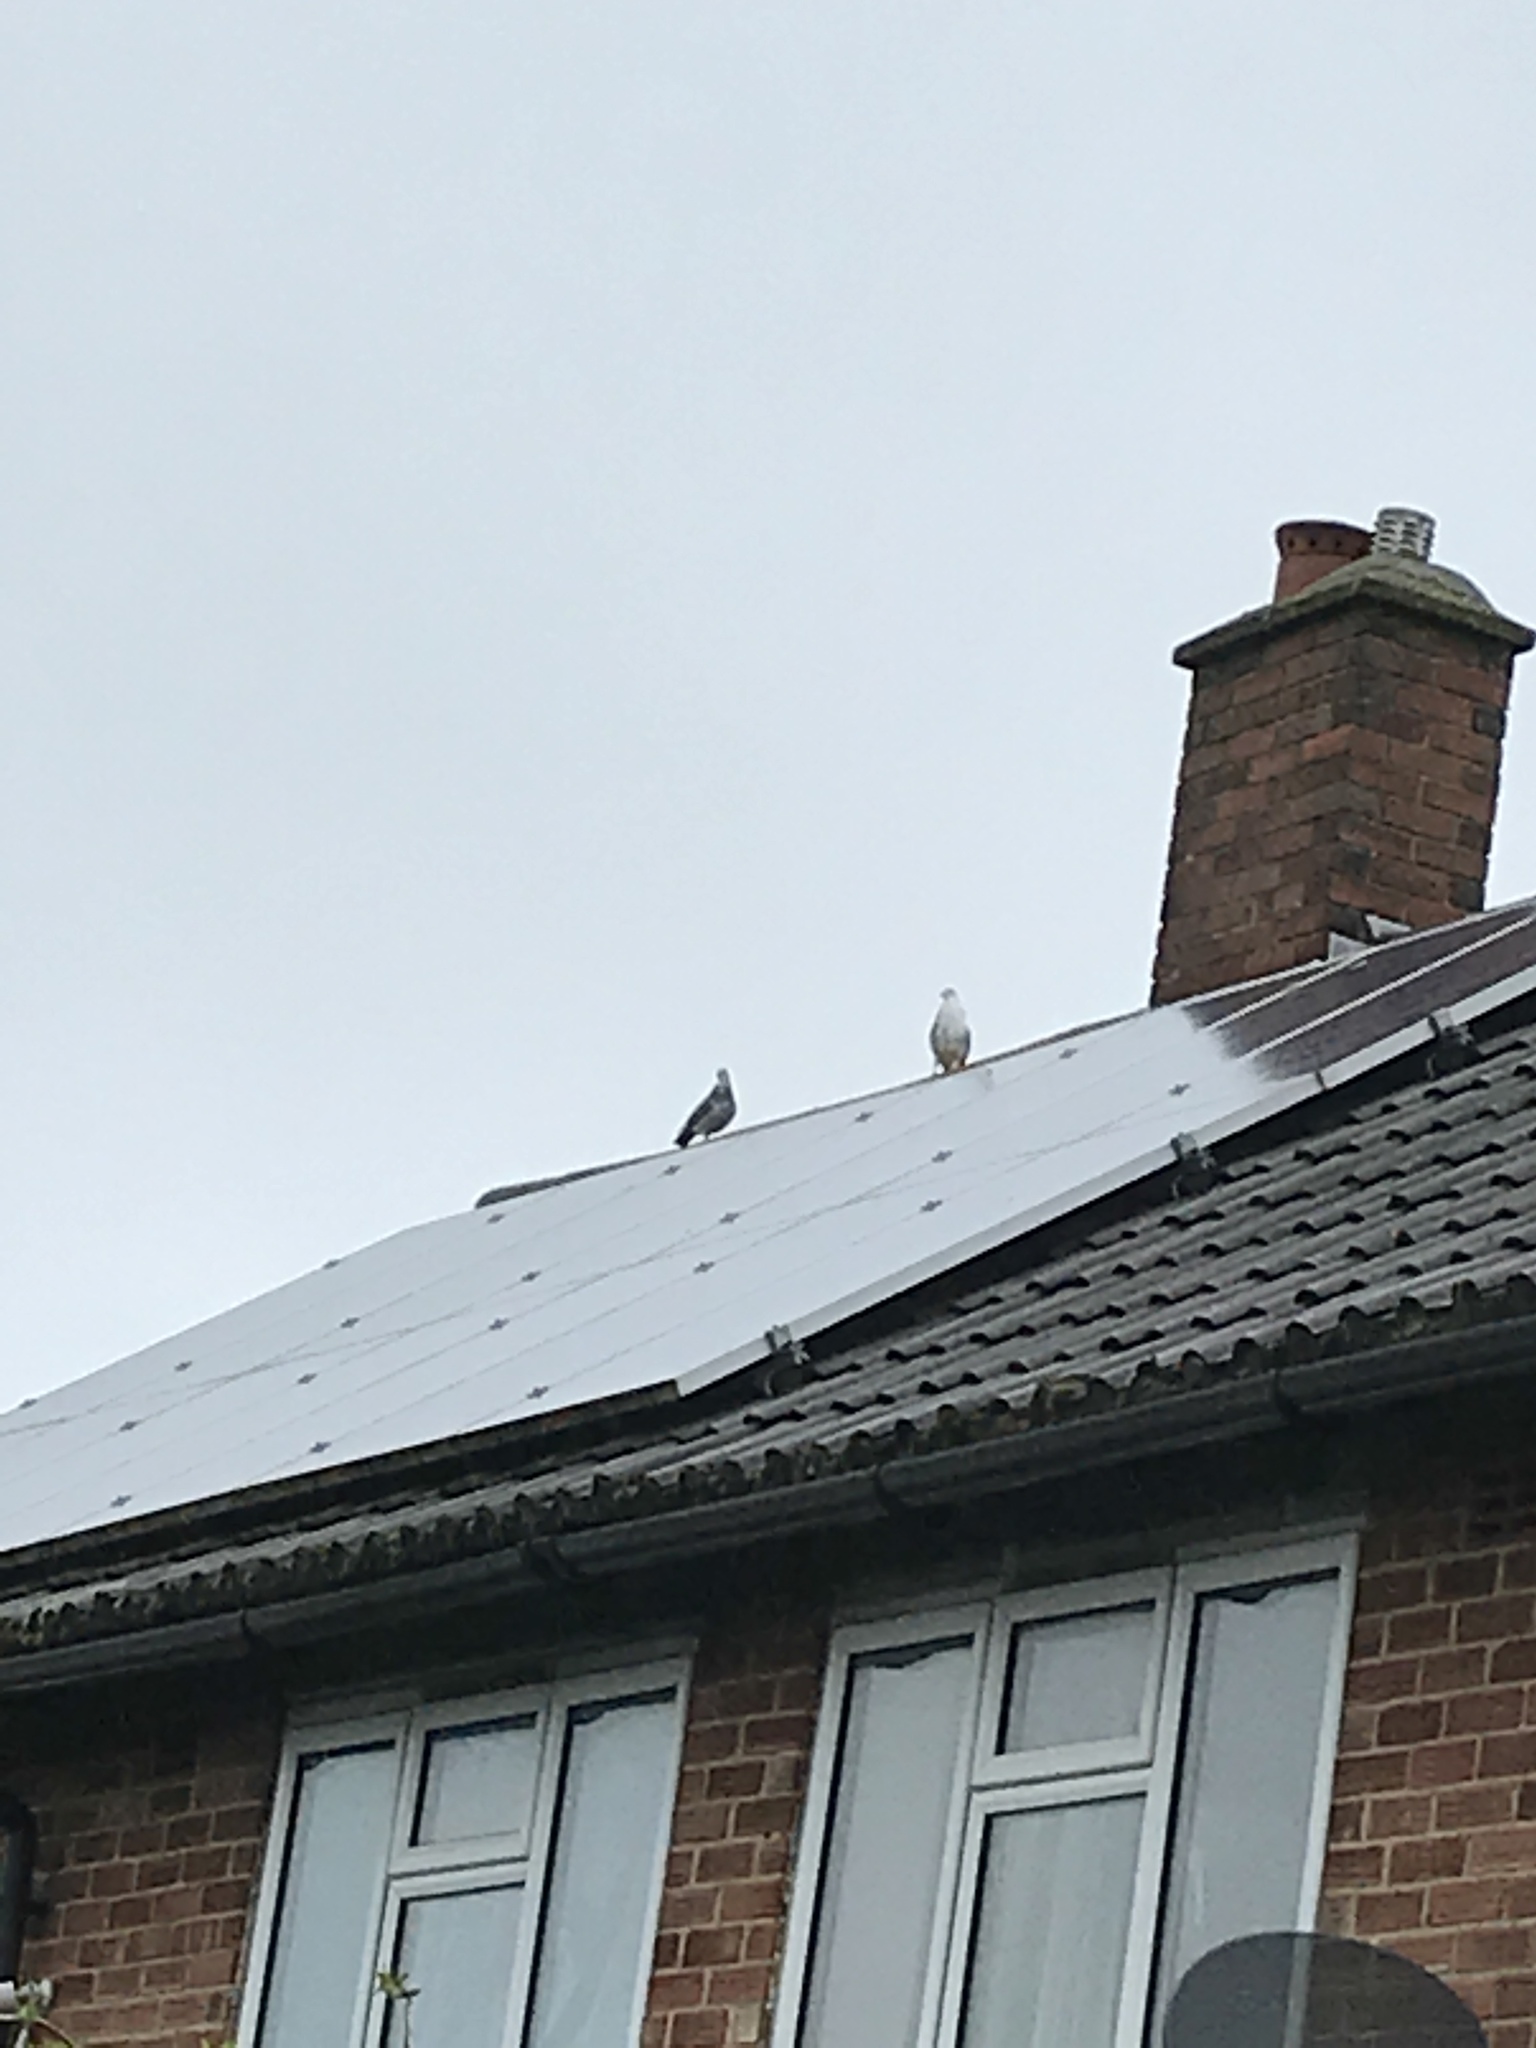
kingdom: Animalia
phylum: Chordata
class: Aves
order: Columbiformes
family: Columbidae
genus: Columba
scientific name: Columba livia
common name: Rock pigeon
